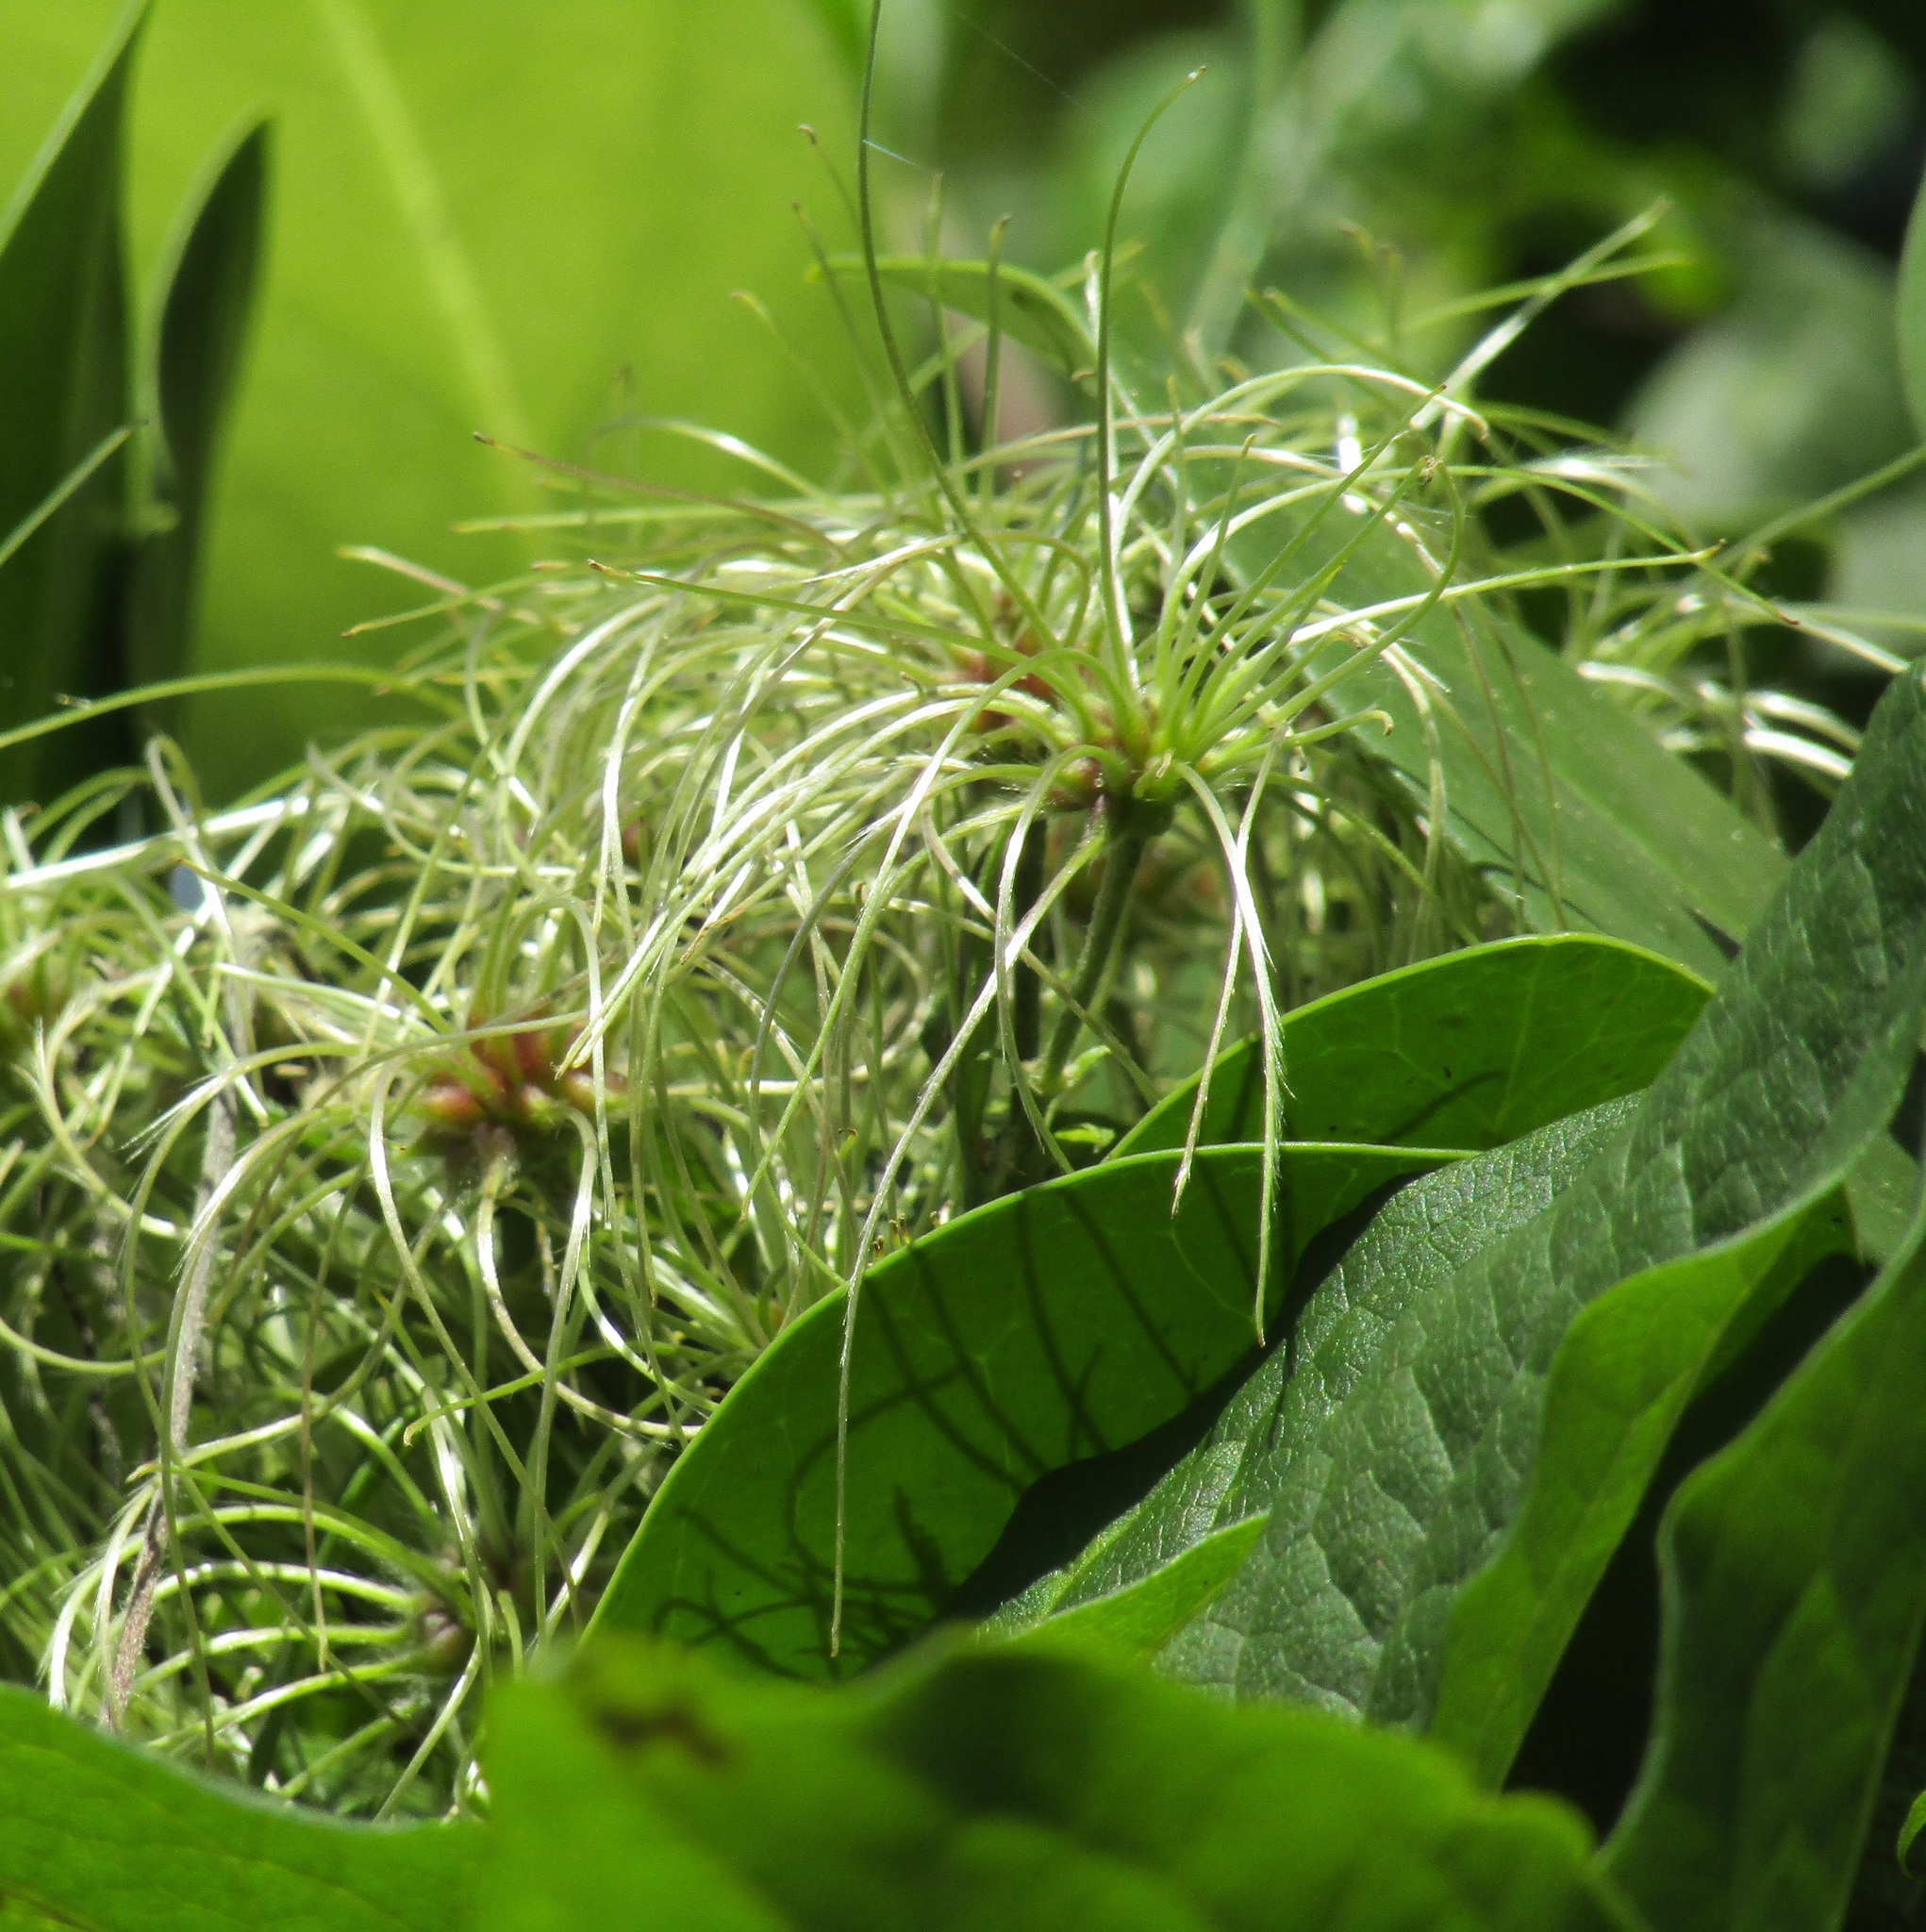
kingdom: Plantae
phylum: Tracheophyta
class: Magnoliopsida
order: Ranunculales
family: Ranunculaceae
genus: Clematis
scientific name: Clematis vitalba
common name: Evergreen clematis
